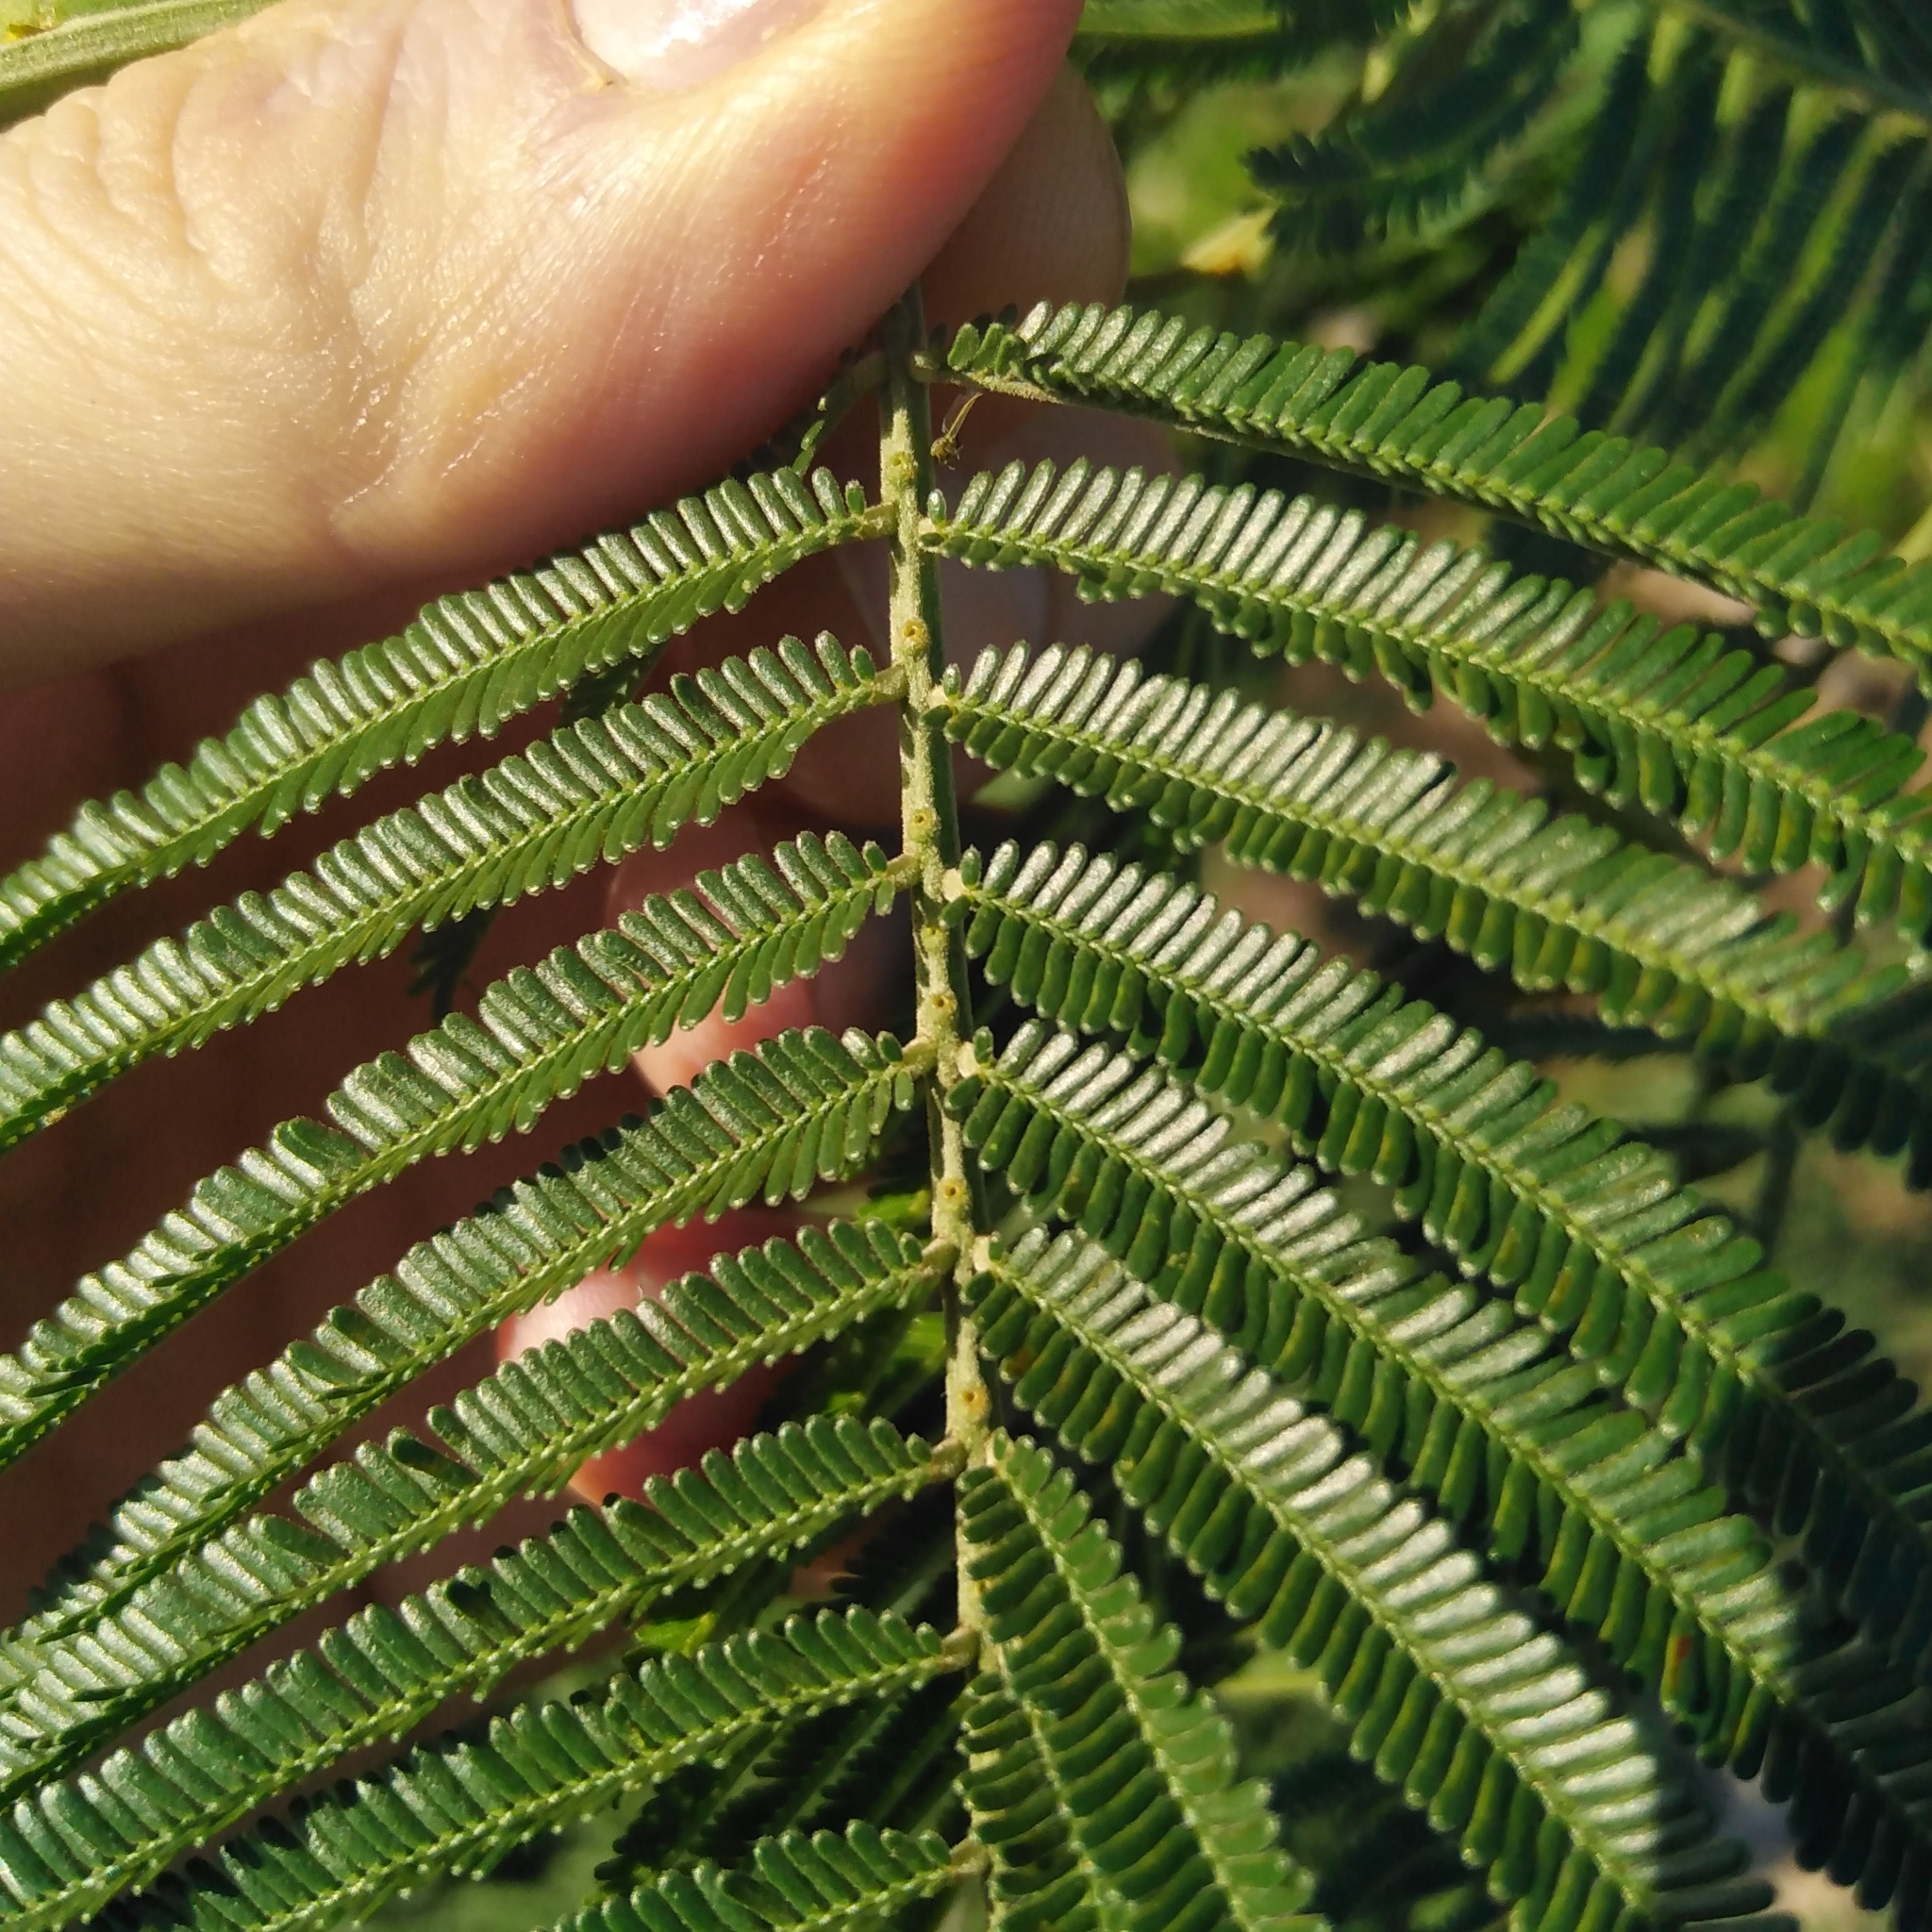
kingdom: Plantae
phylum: Tracheophyta
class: Magnoliopsida
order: Fabales
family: Fabaceae
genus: Acacia
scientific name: Acacia mearnsii
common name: Black wattle
